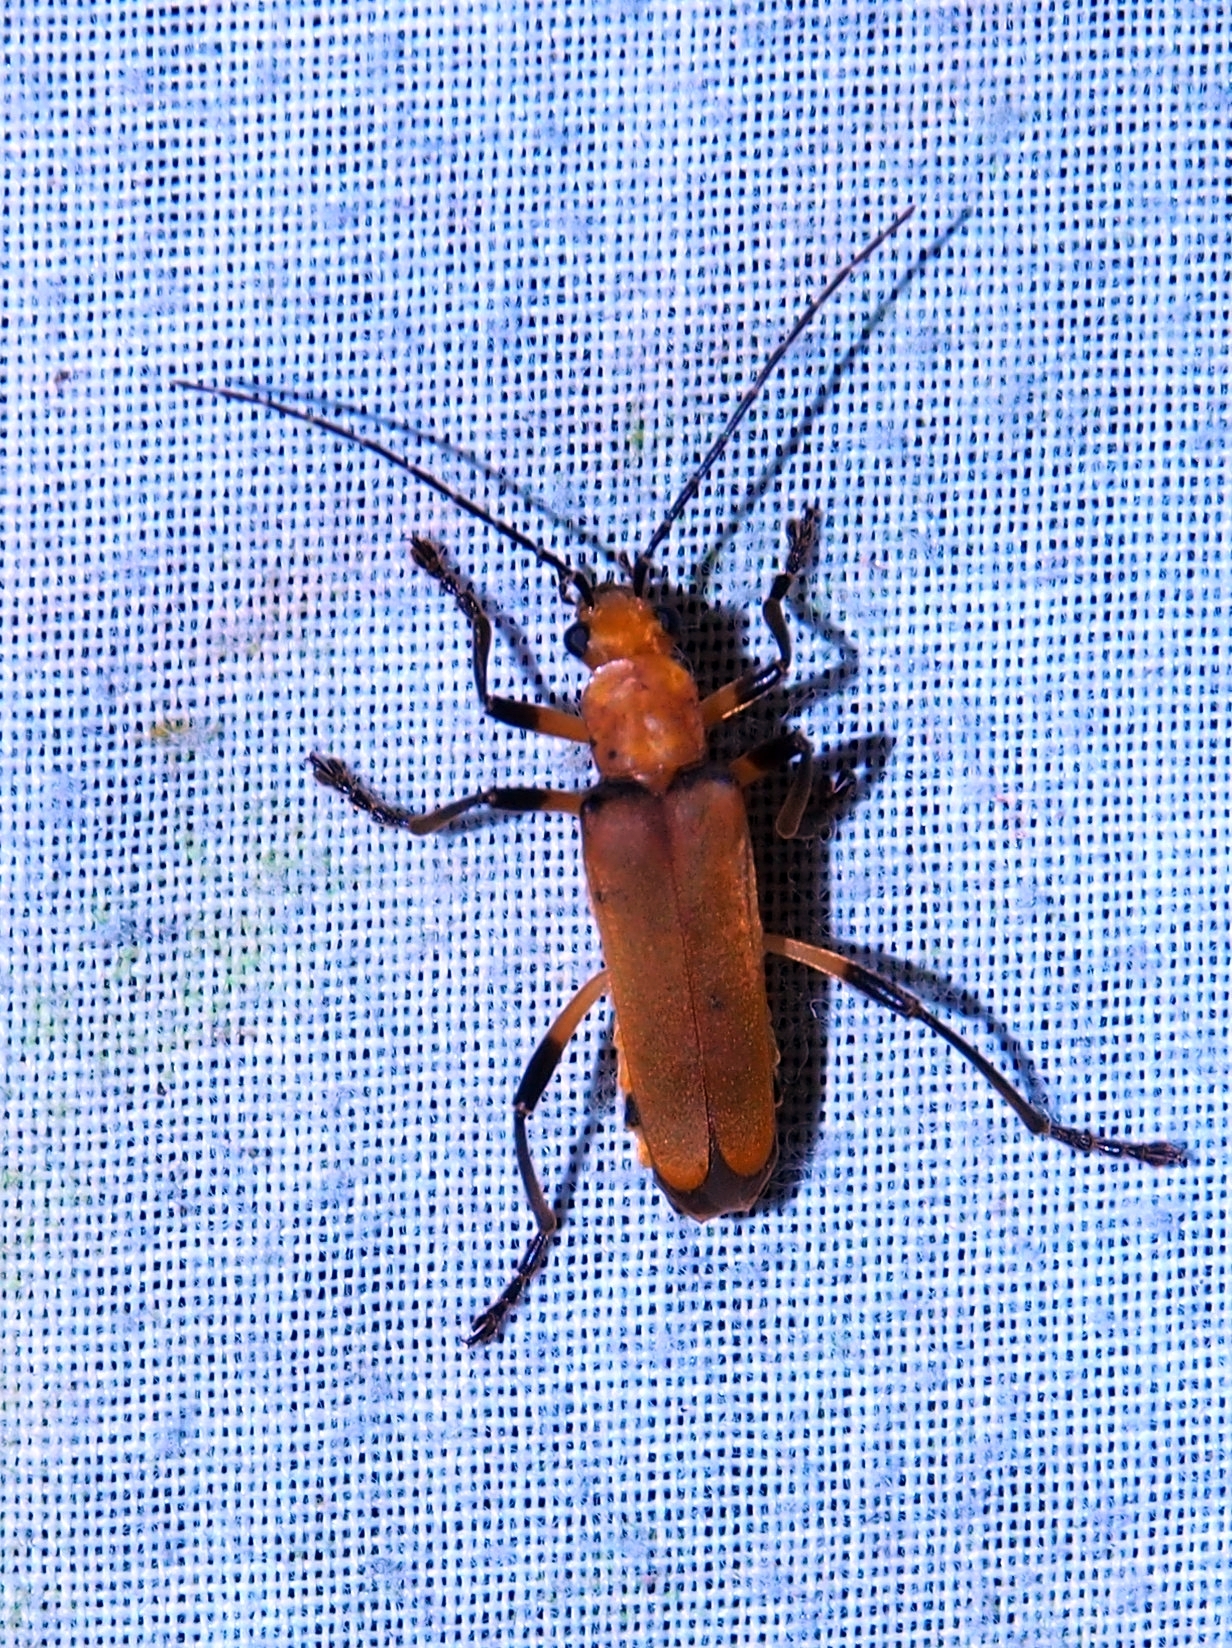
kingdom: Animalia
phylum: Arthropoda
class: Insecta
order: Coleoptera
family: Cantharidae
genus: Chauliognathus
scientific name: Chauliognathus
